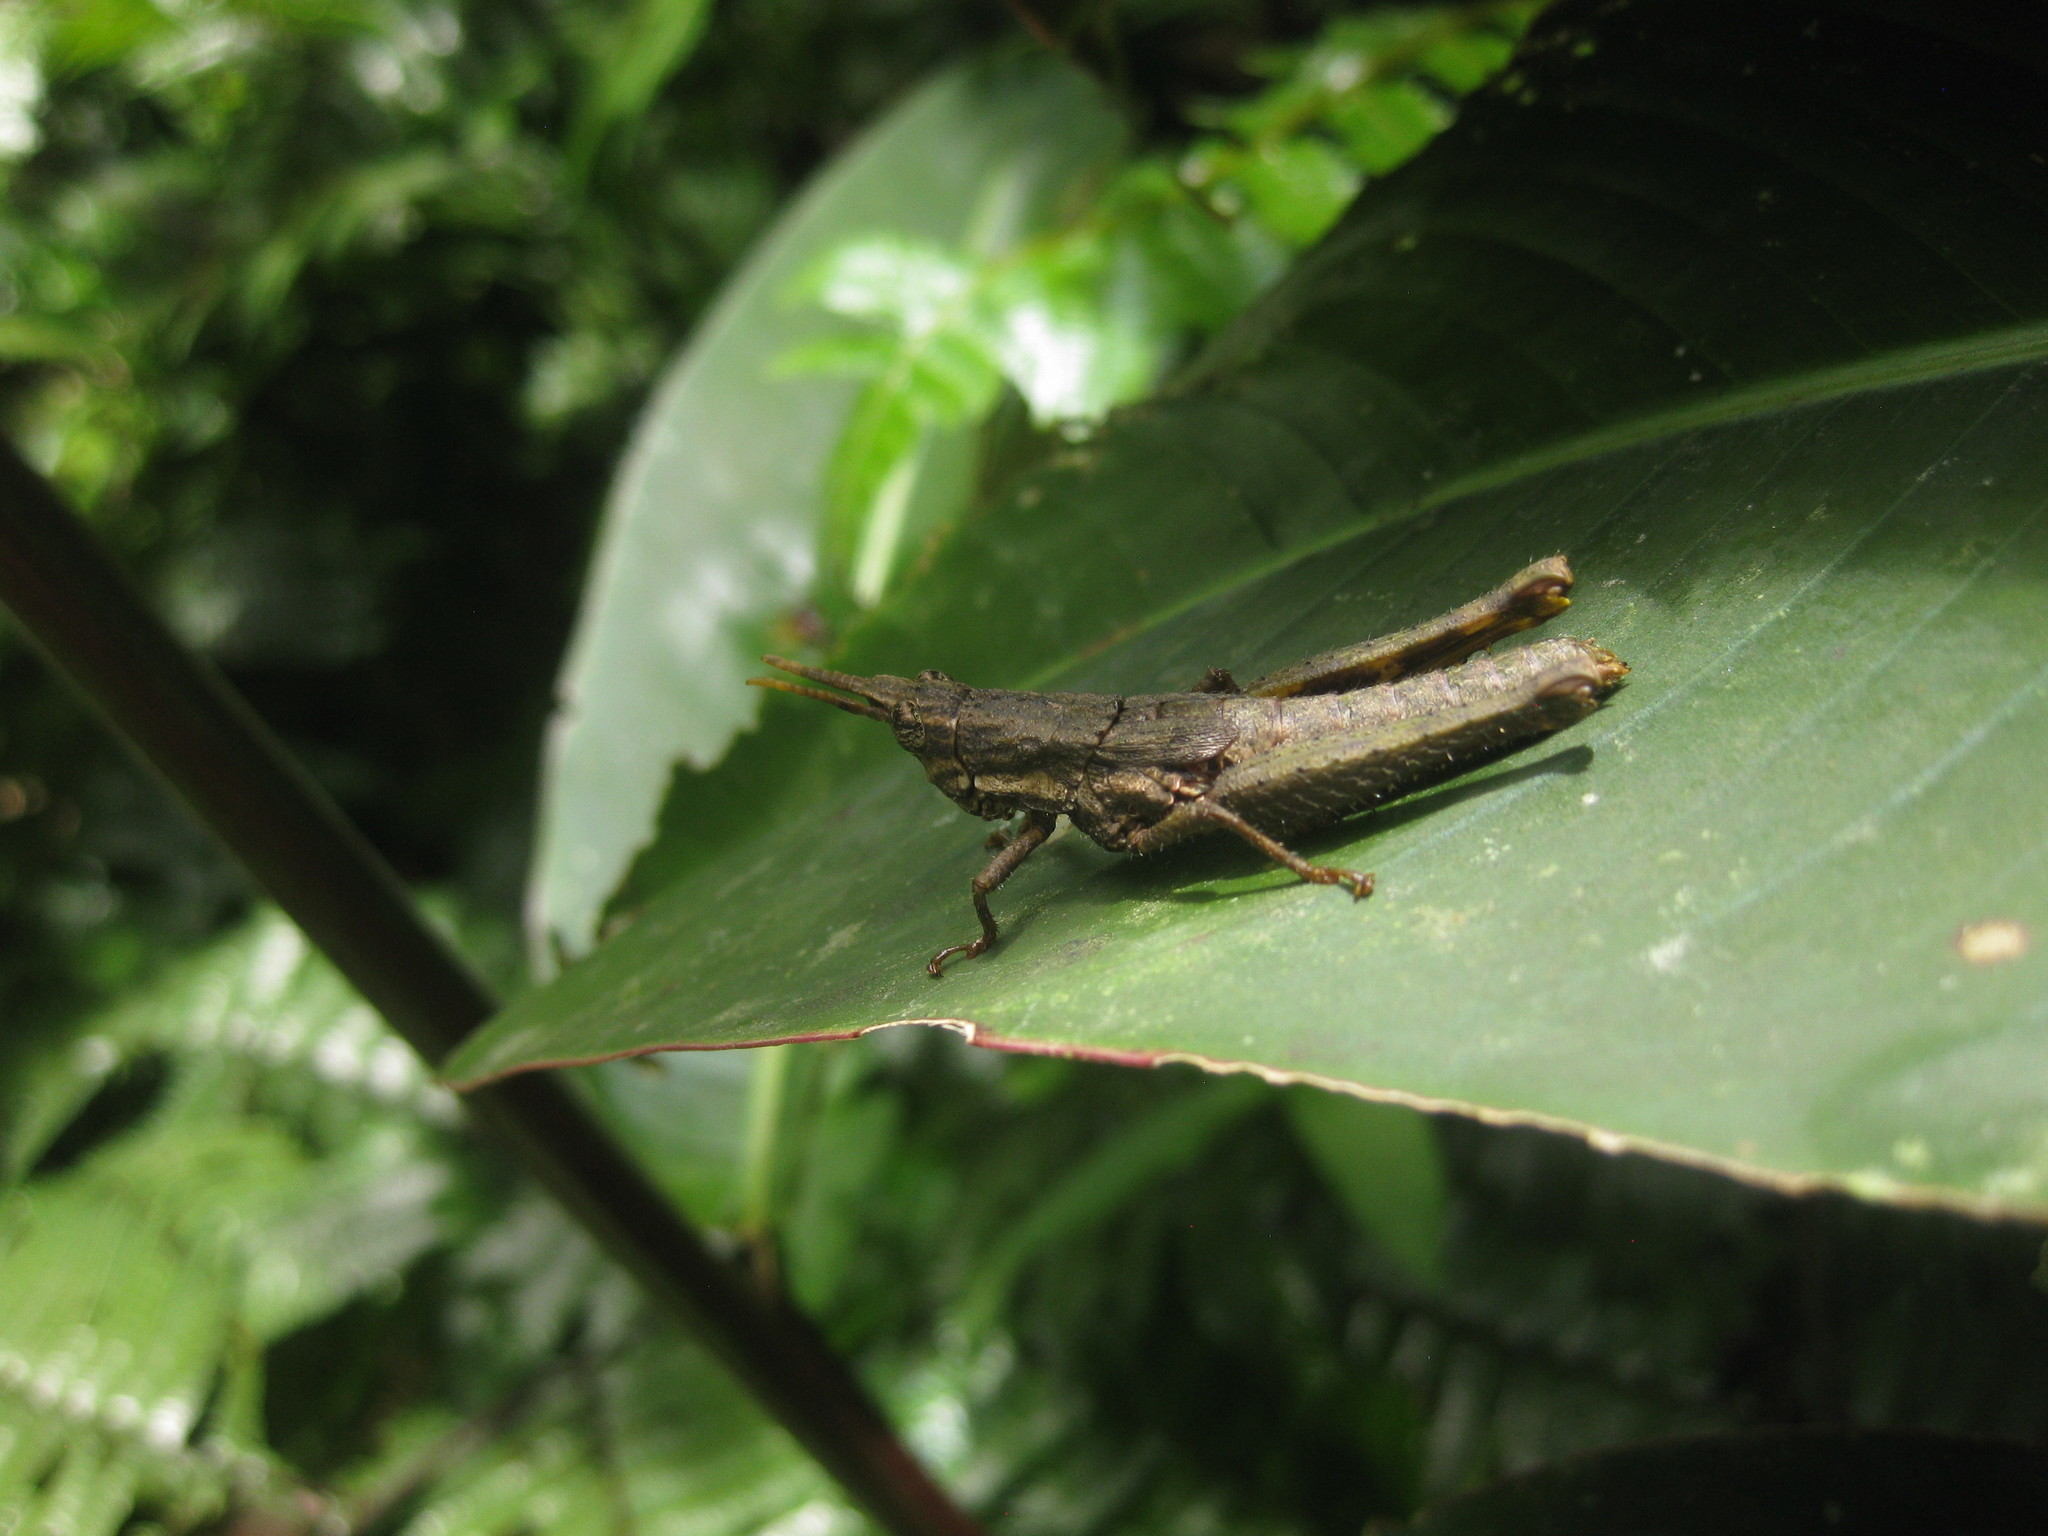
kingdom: Animalia
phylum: Arthropoda
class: Insecta
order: Orthoptera
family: Acrididae
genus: Lysacris
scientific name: Lysacris sylvestris
